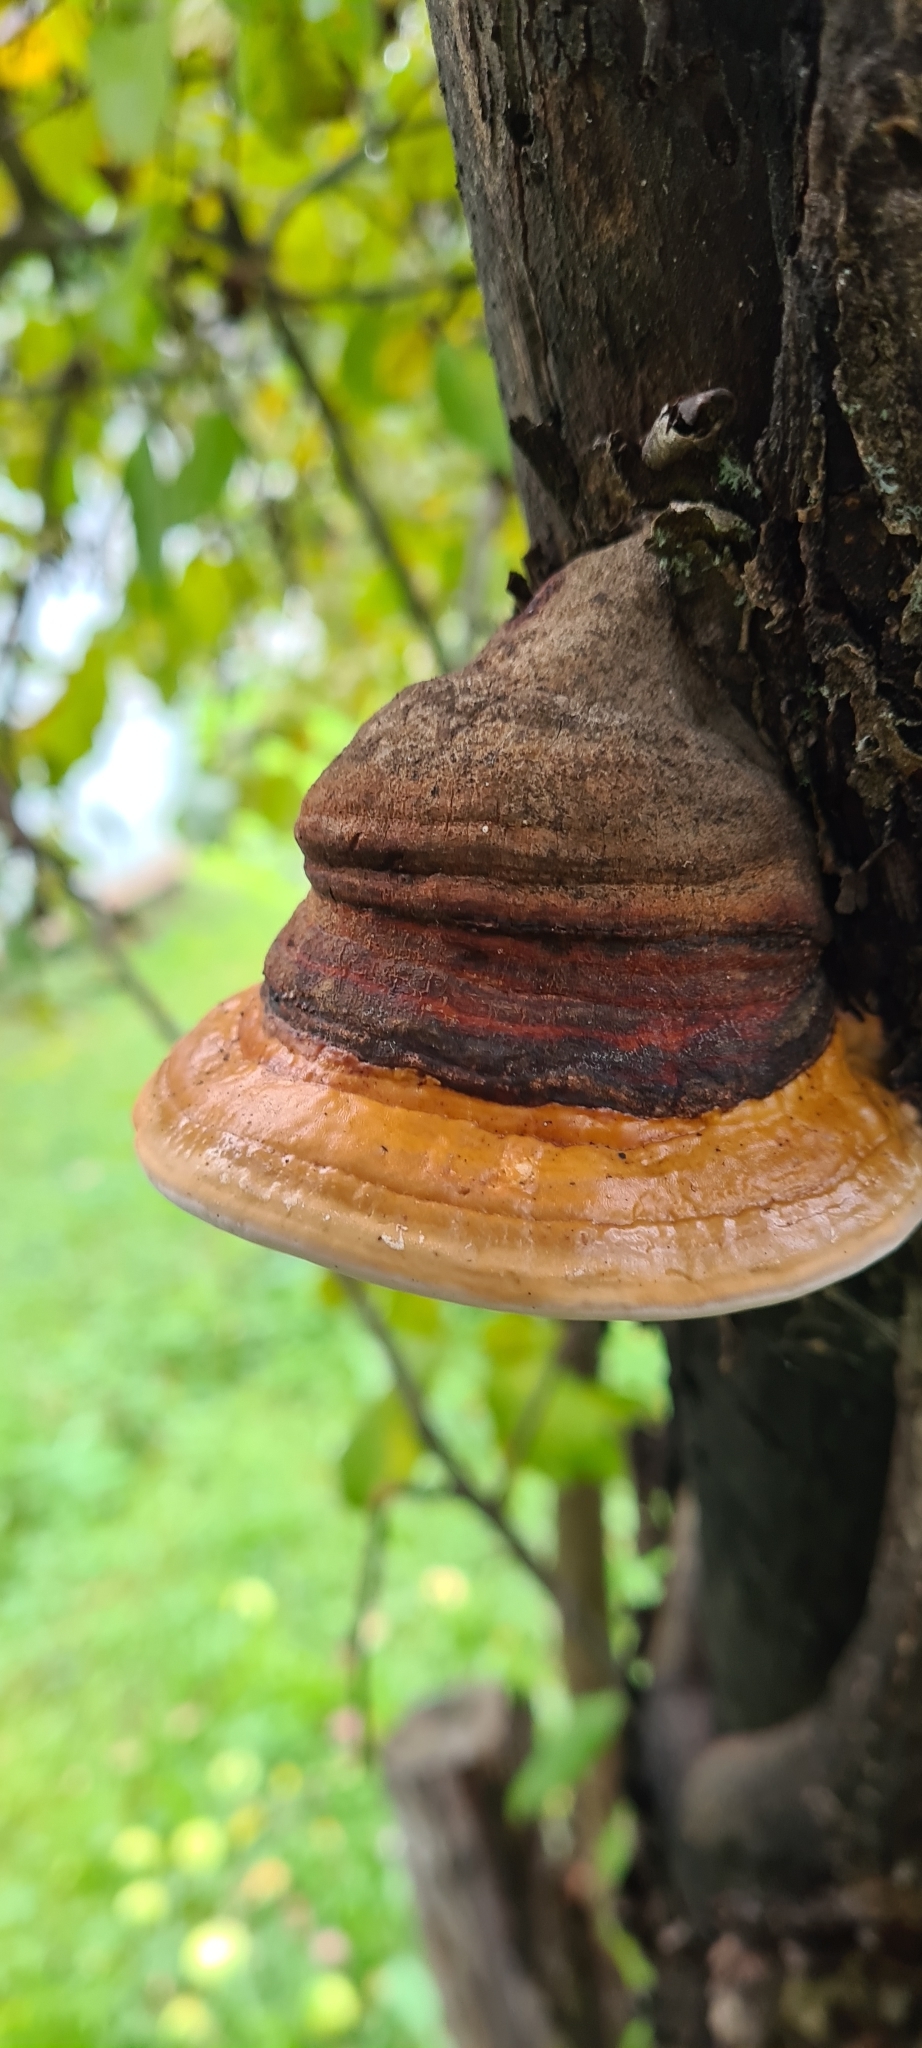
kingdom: Fungi
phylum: Basidiomycota
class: Agaricomycetes
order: Polyporales
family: Fomitopsidaceae
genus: Fomitopsis
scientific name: Fomitopsis pinicola
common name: Red-belted bracket
